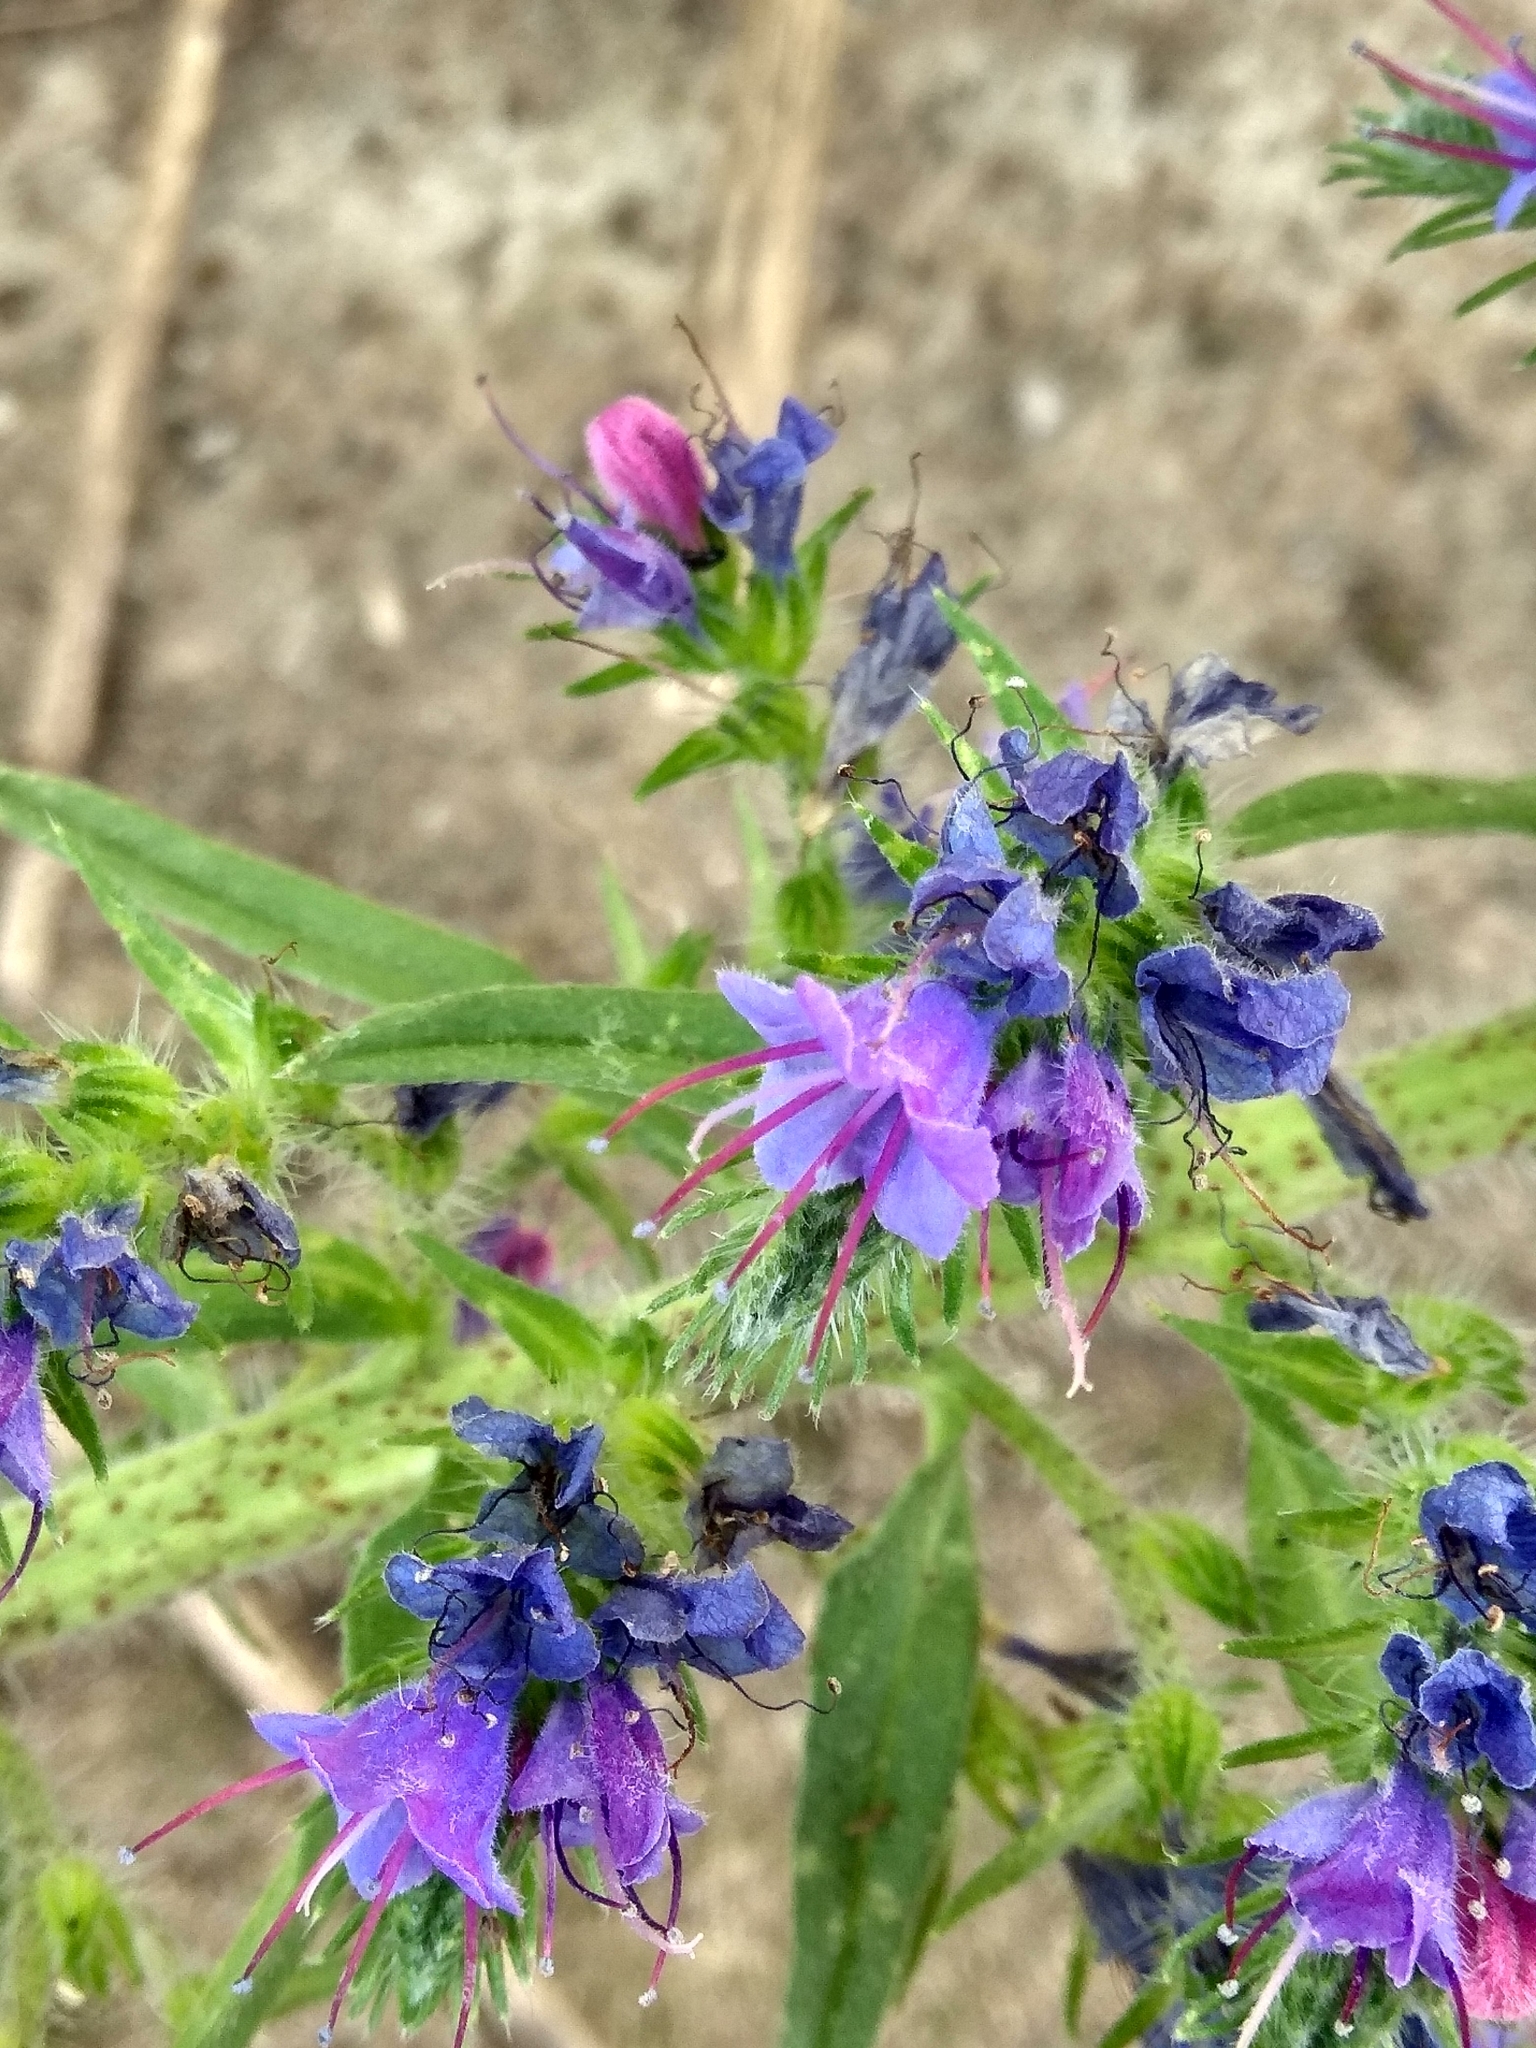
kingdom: Plantae
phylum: Tracheophyta
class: Magnoliopsida
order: Boraginales
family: Boraginaceae
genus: Echium
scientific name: Echium vulgare
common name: Common viper's bugloss
